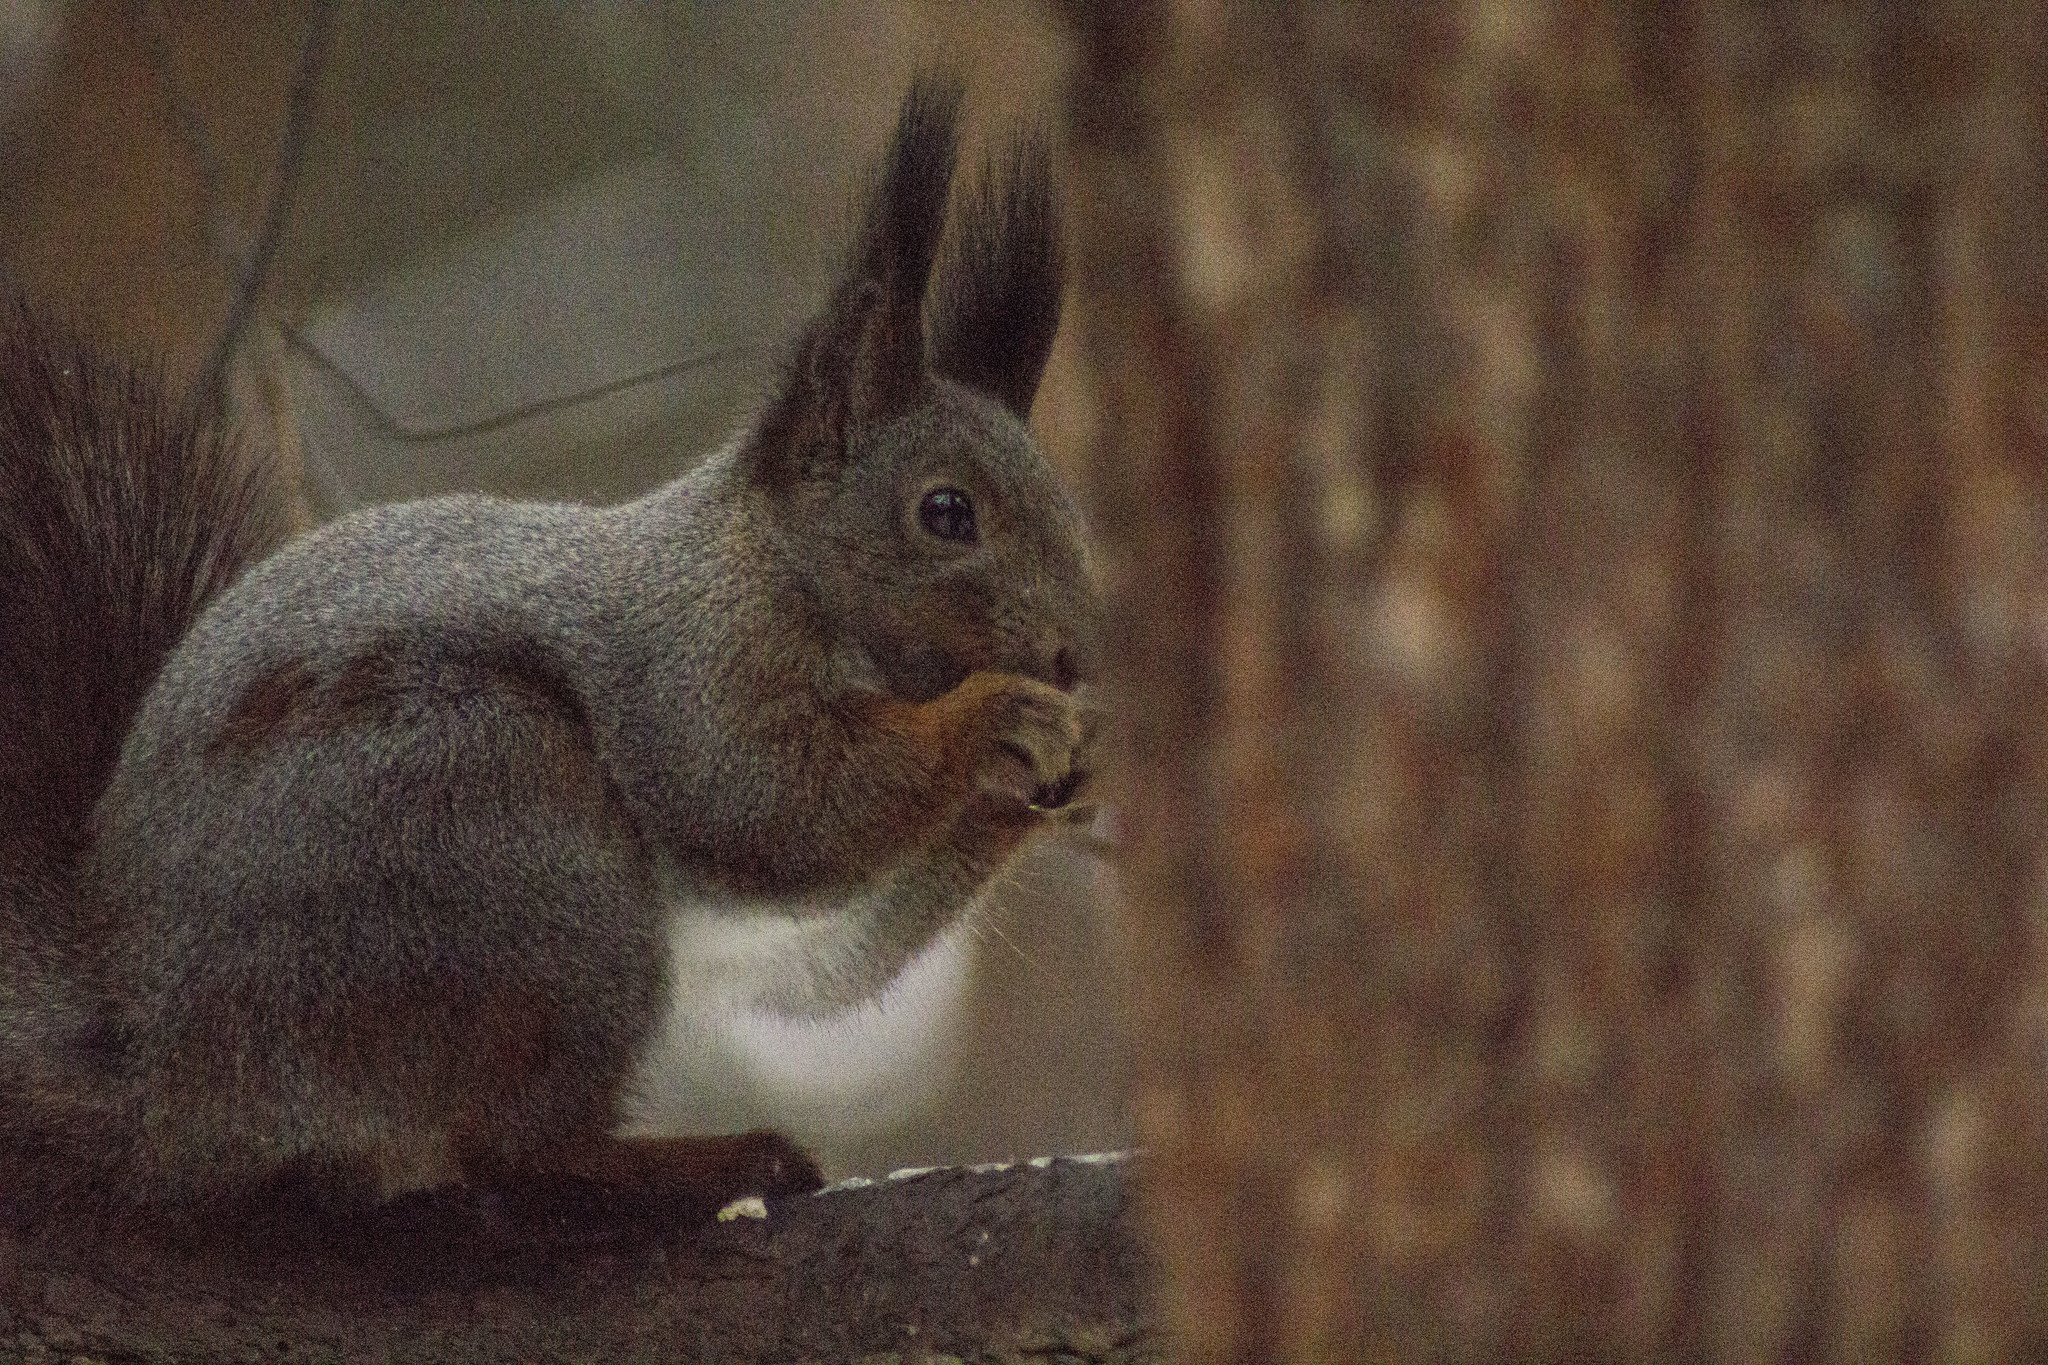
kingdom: Animalia
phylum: Chordata
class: Mammalia
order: Rodentia
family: Sciuridae
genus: Sciurus
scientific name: Sciurus vulgaris
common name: Eurasian red squirrel
